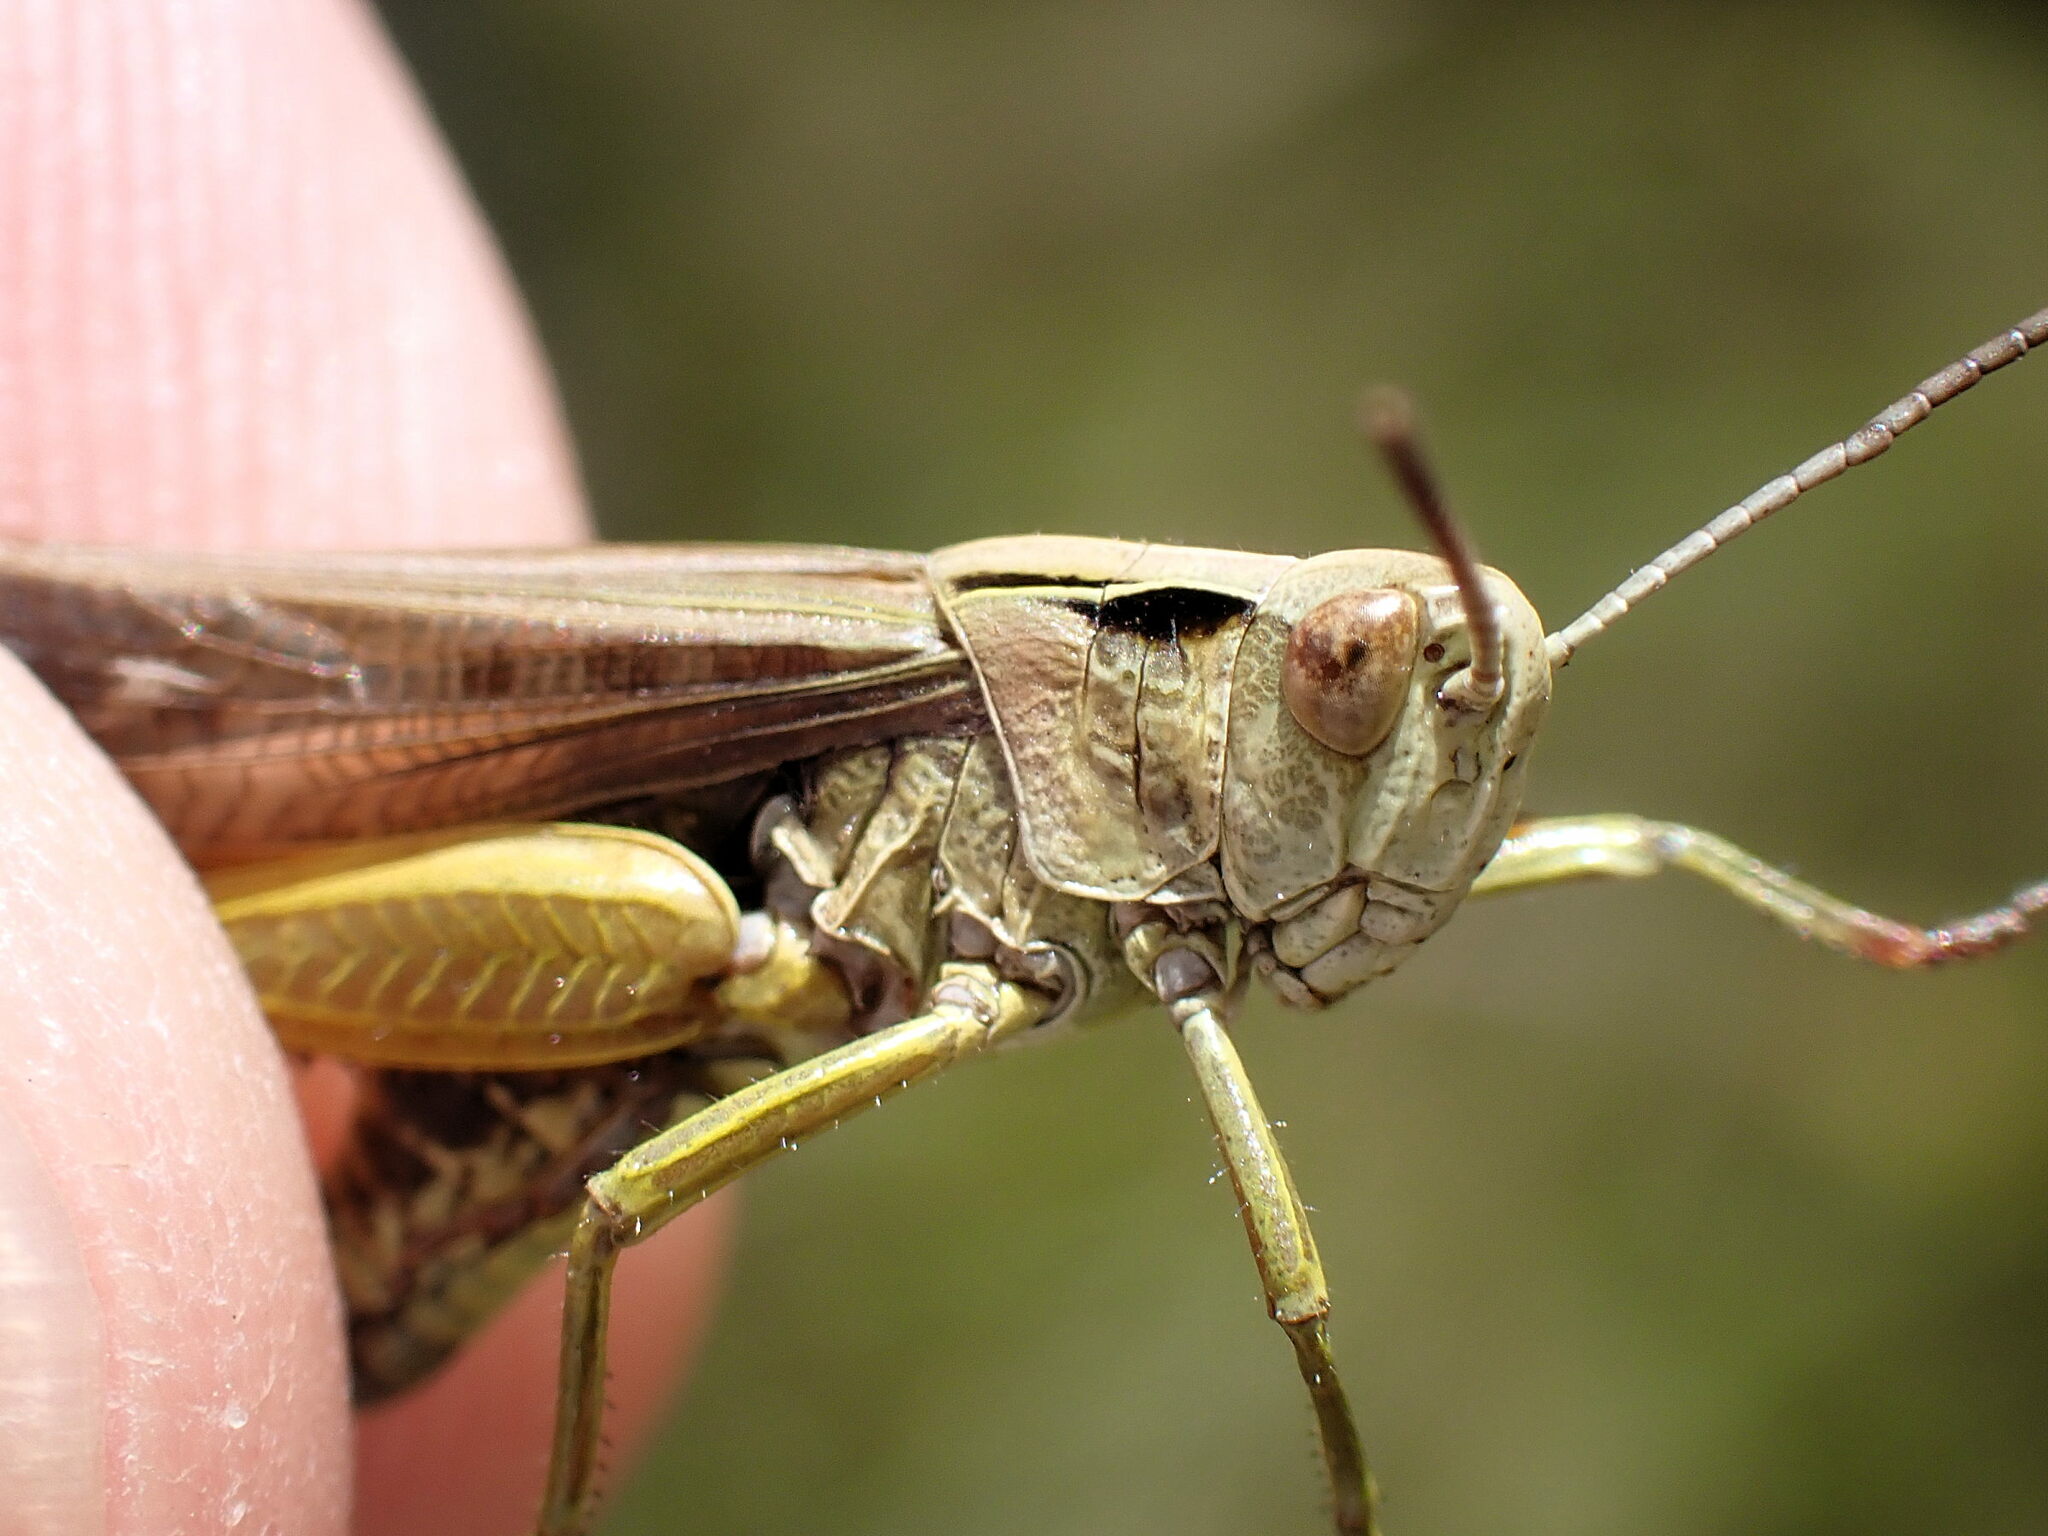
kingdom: Animalia
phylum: Arthropoda
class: Insecta
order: Orthoptera
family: Acrididae
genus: Omocestus
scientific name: Omocestus viridulus
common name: Common green grasshopper
